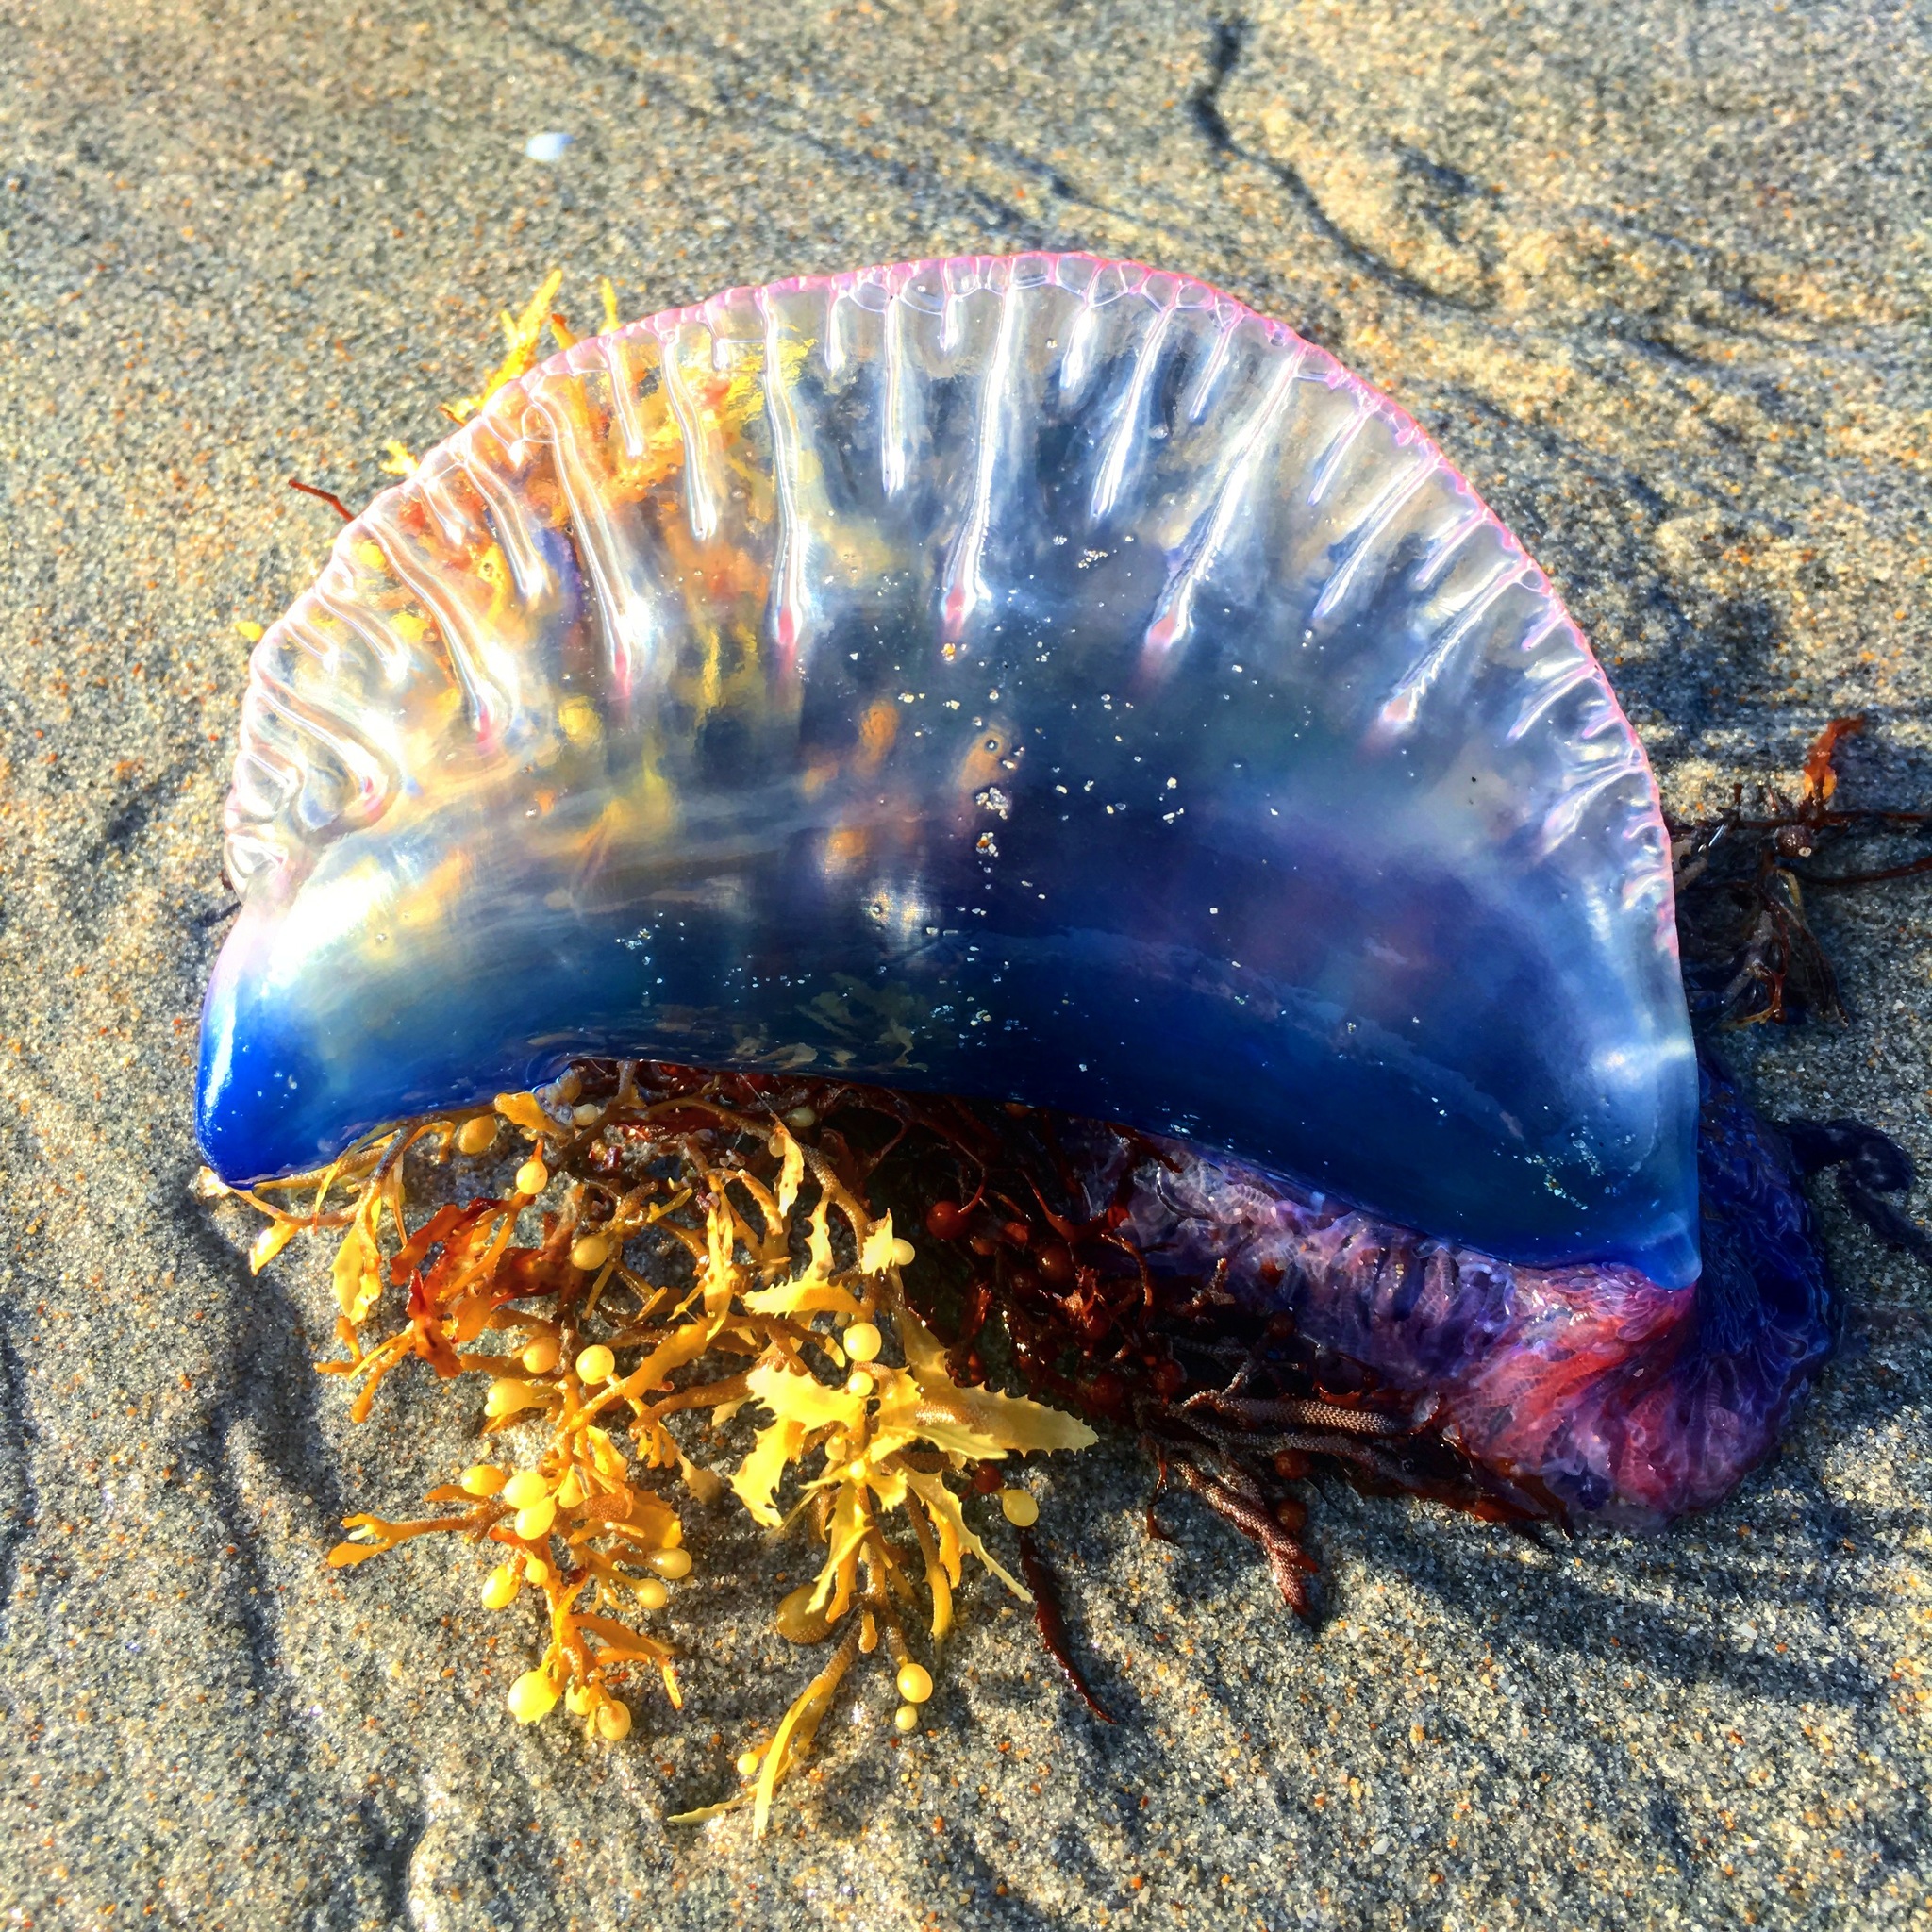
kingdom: Animalia
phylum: Cnidaria
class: Hydrozoa
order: Siphonophorae
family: Physaliidae
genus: Physalia
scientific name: Physalia physalis
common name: Portuguese man-of-war
